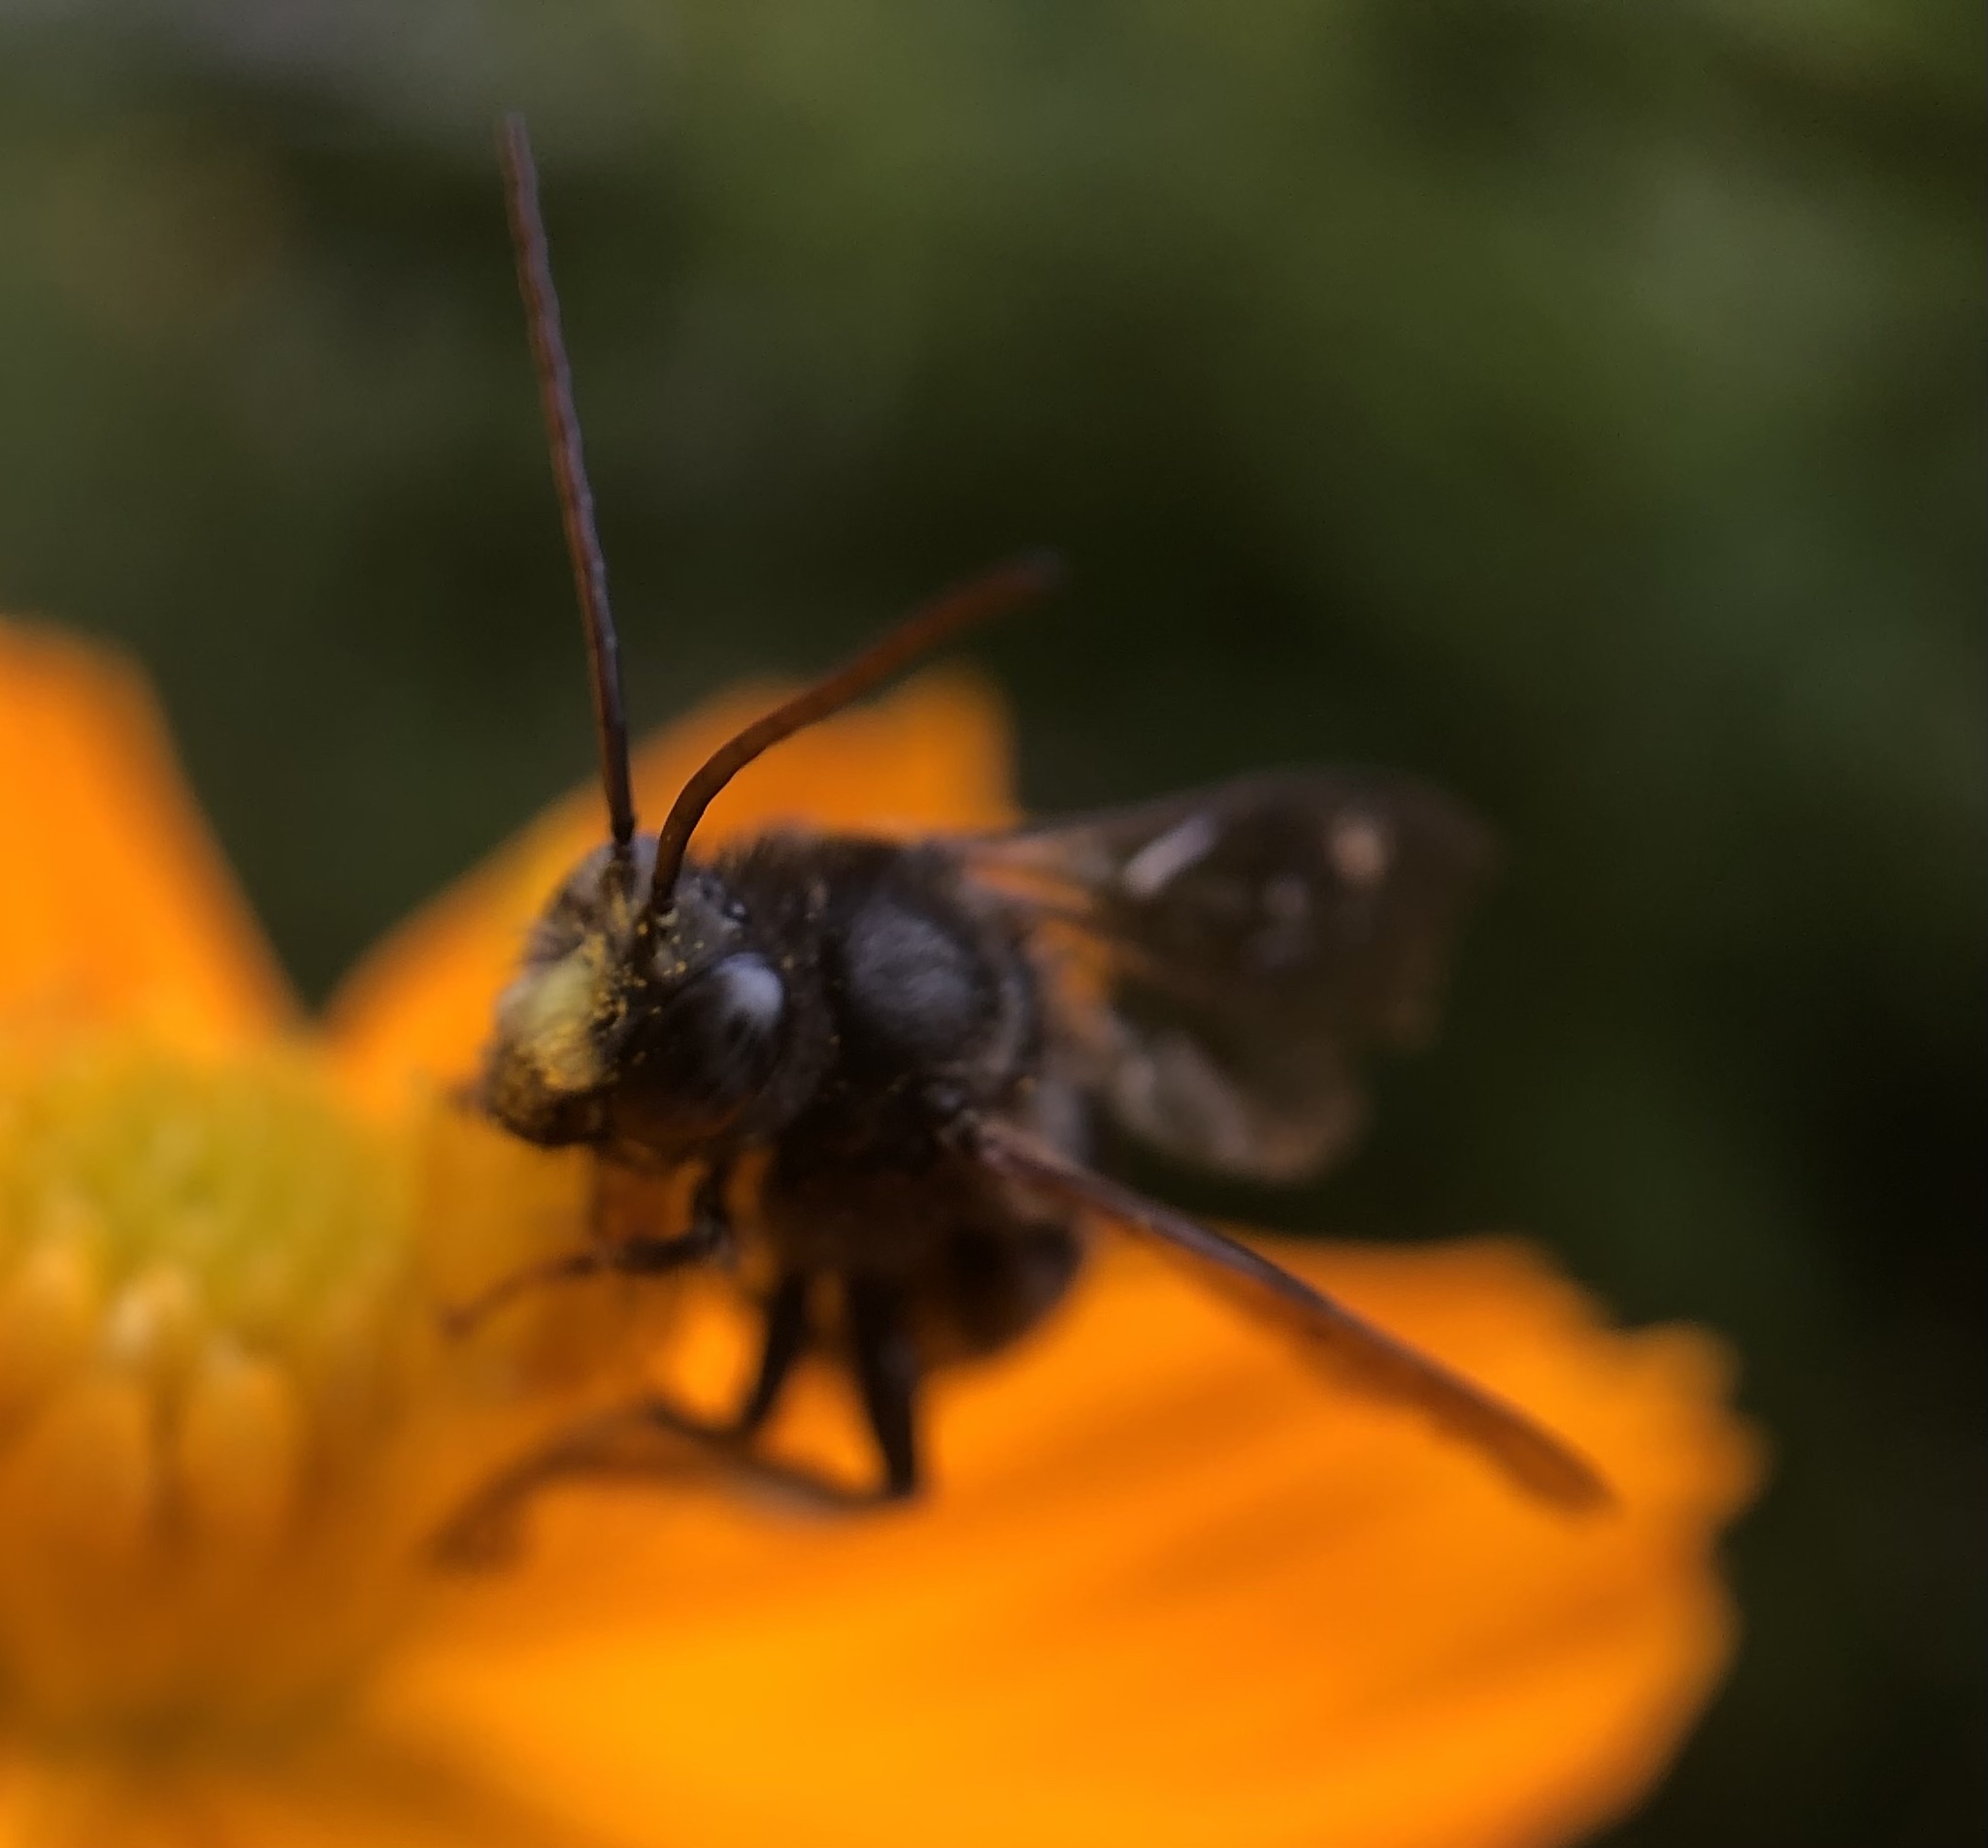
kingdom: Animalia
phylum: Arthropoda
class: Insecta
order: Hymenoptera
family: Apidae
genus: Melissodes
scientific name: Melissodes bimaculatus
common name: Two-spotted long-horned bee
